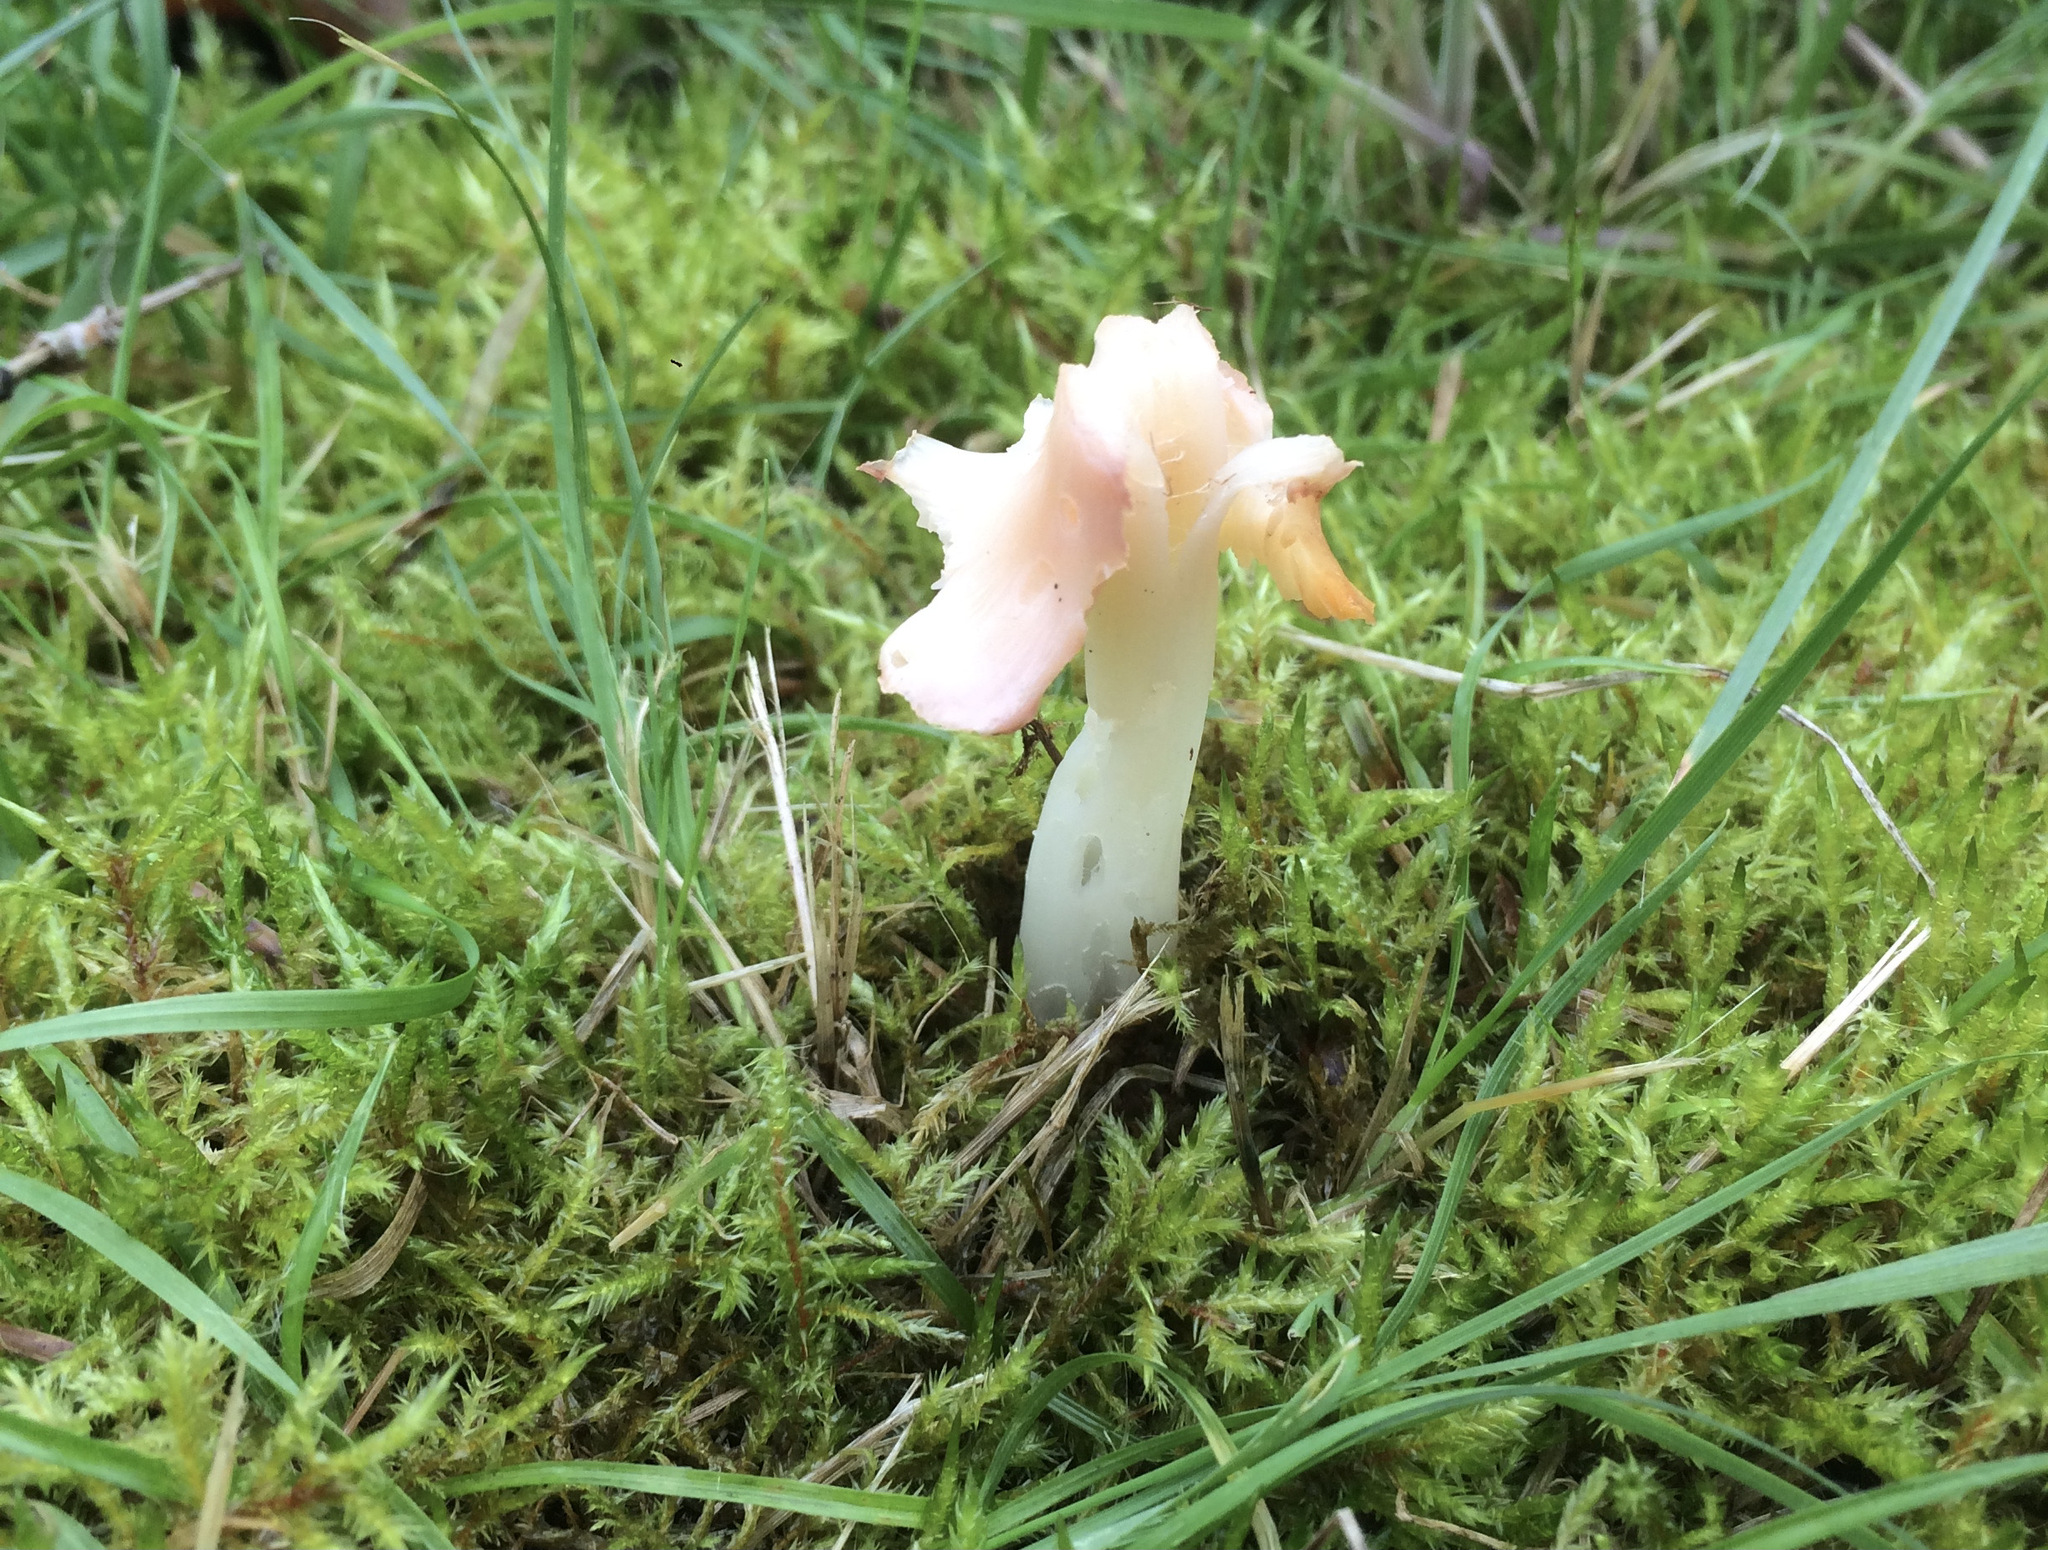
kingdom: Fungi
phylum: Basidiomycota
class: Agaricomycetes
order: Agaricales
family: Hygrophoraceae
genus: Porpolomopsis
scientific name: Porpolomopsis calyptriformis
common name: Pink waxcap
